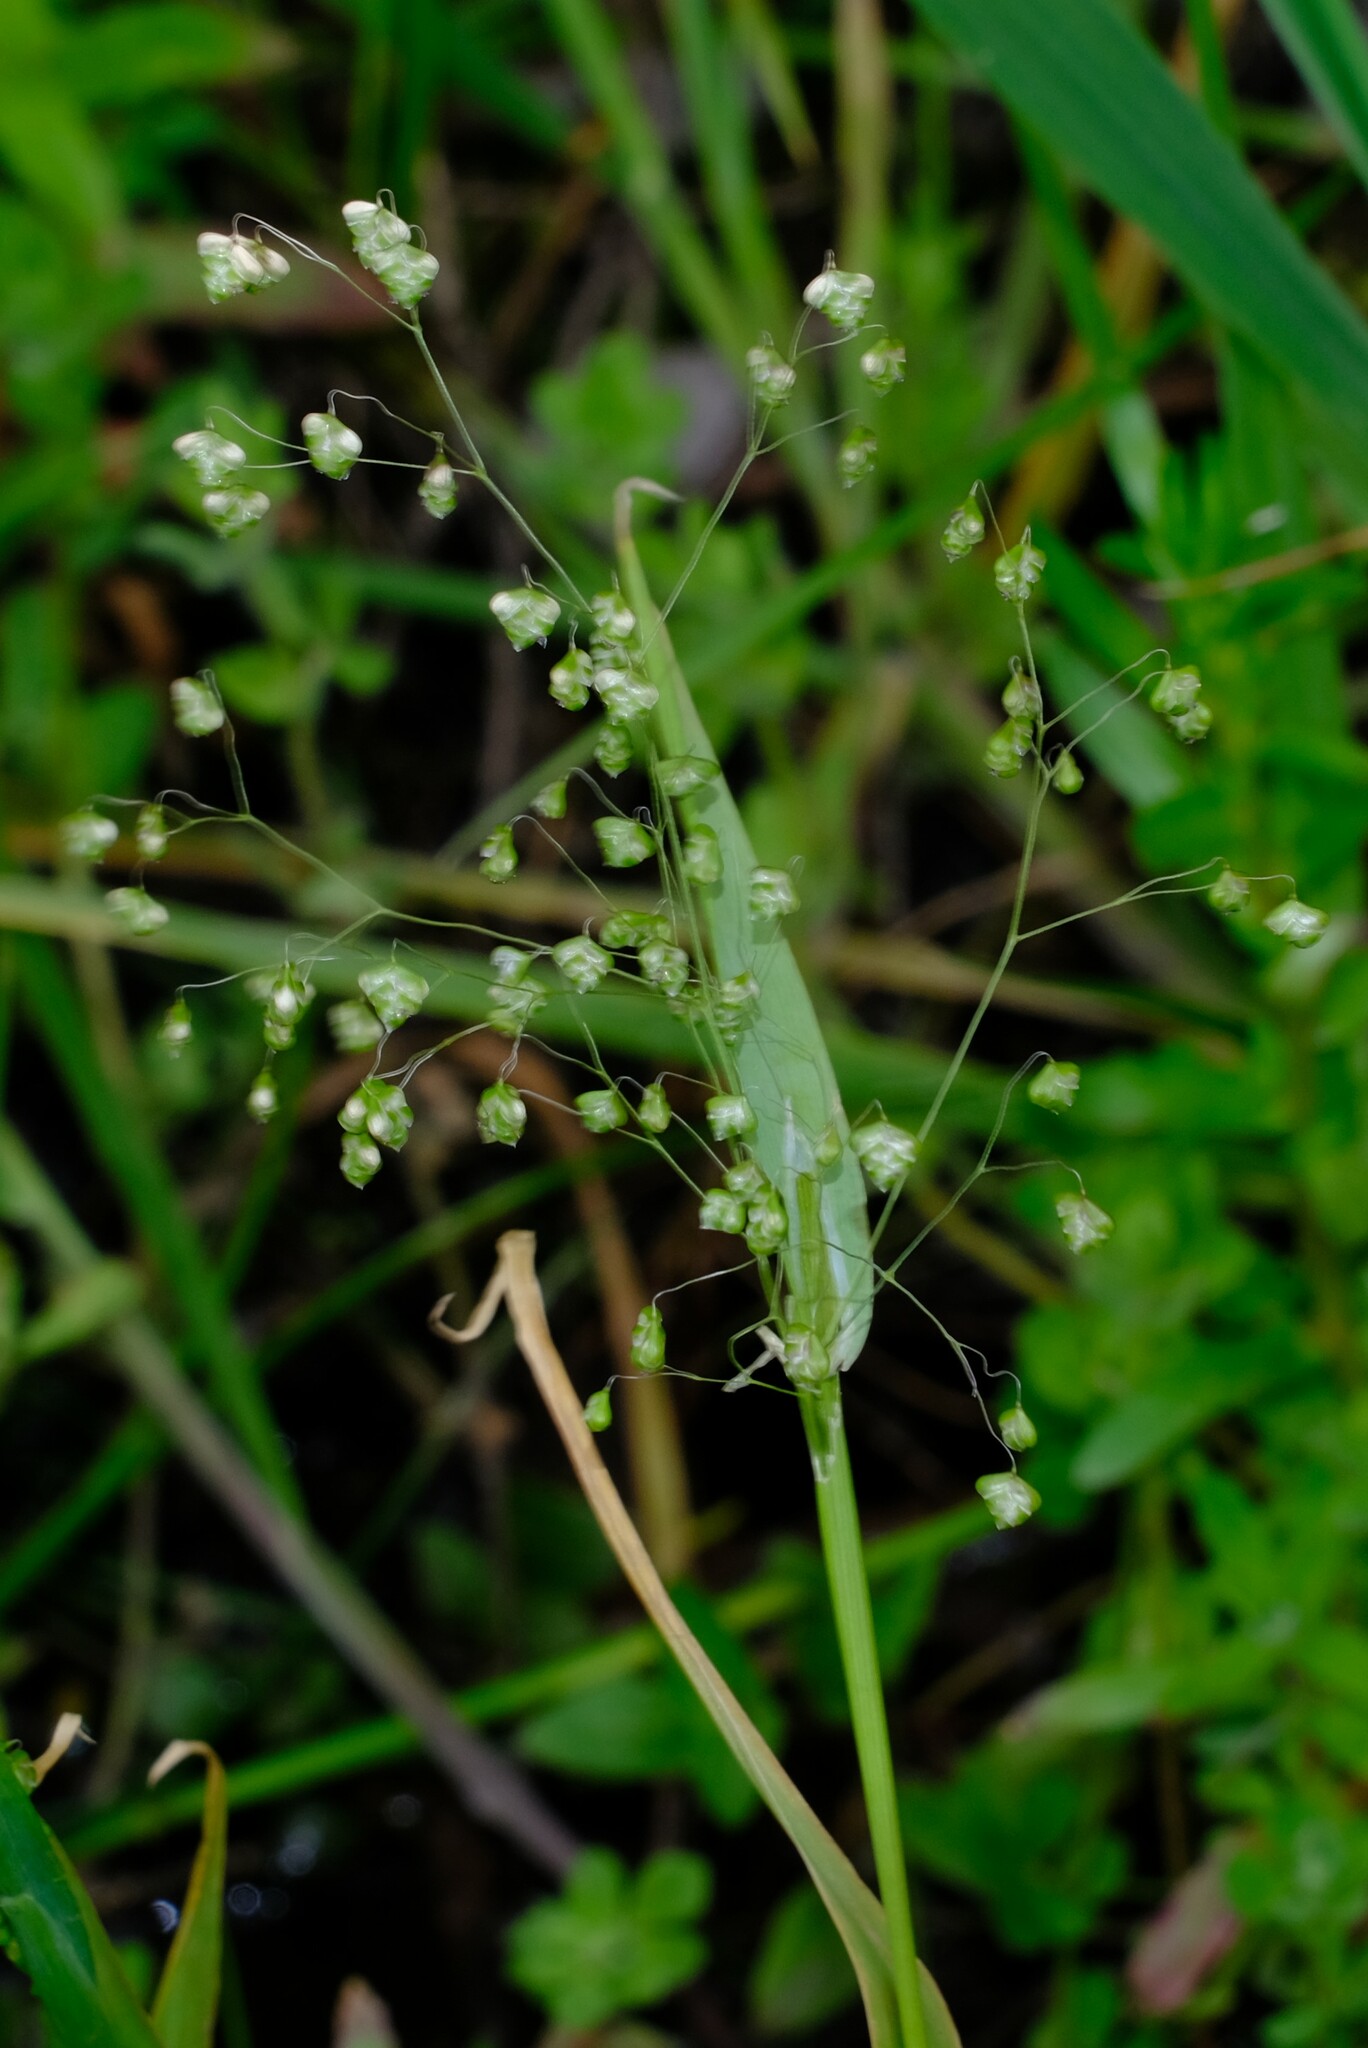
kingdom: Plantae
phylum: Tracheophyta
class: Liliopsida
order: Poales
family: Poaceae
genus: Briza
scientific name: Briza minor
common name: Lesser quaking-grass
